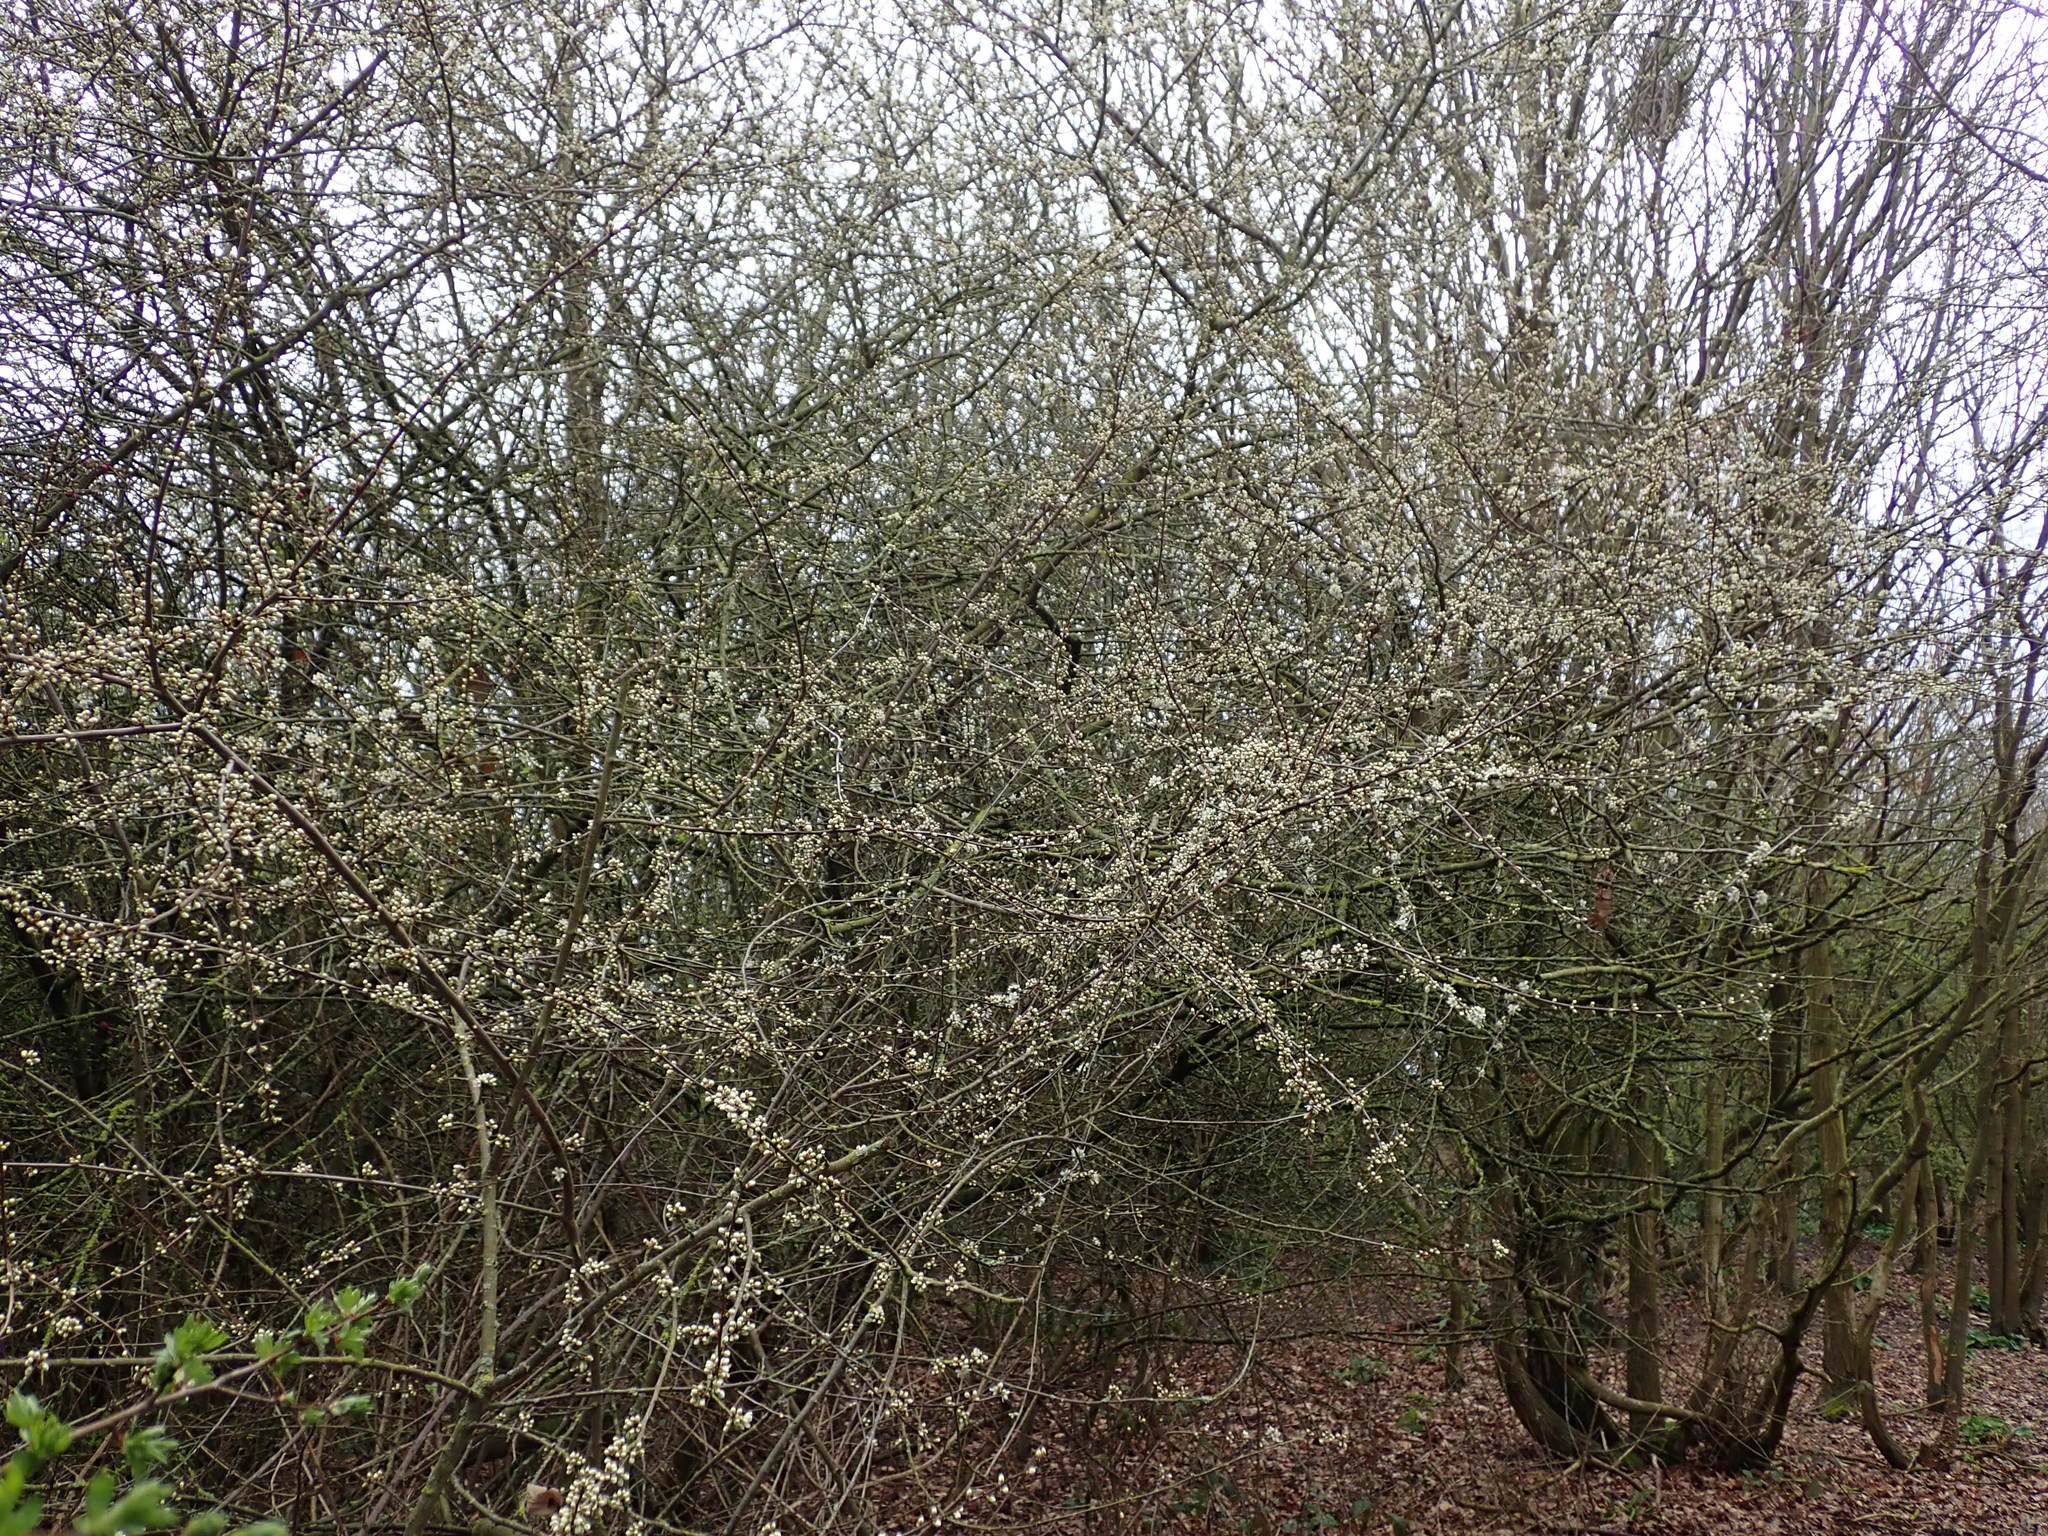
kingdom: Plantae
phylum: Tracheophyta
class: Magnoliopsida
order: Rosales
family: Rosaceae
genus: Prunus
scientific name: Prunus spinosa
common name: Blackthorn
